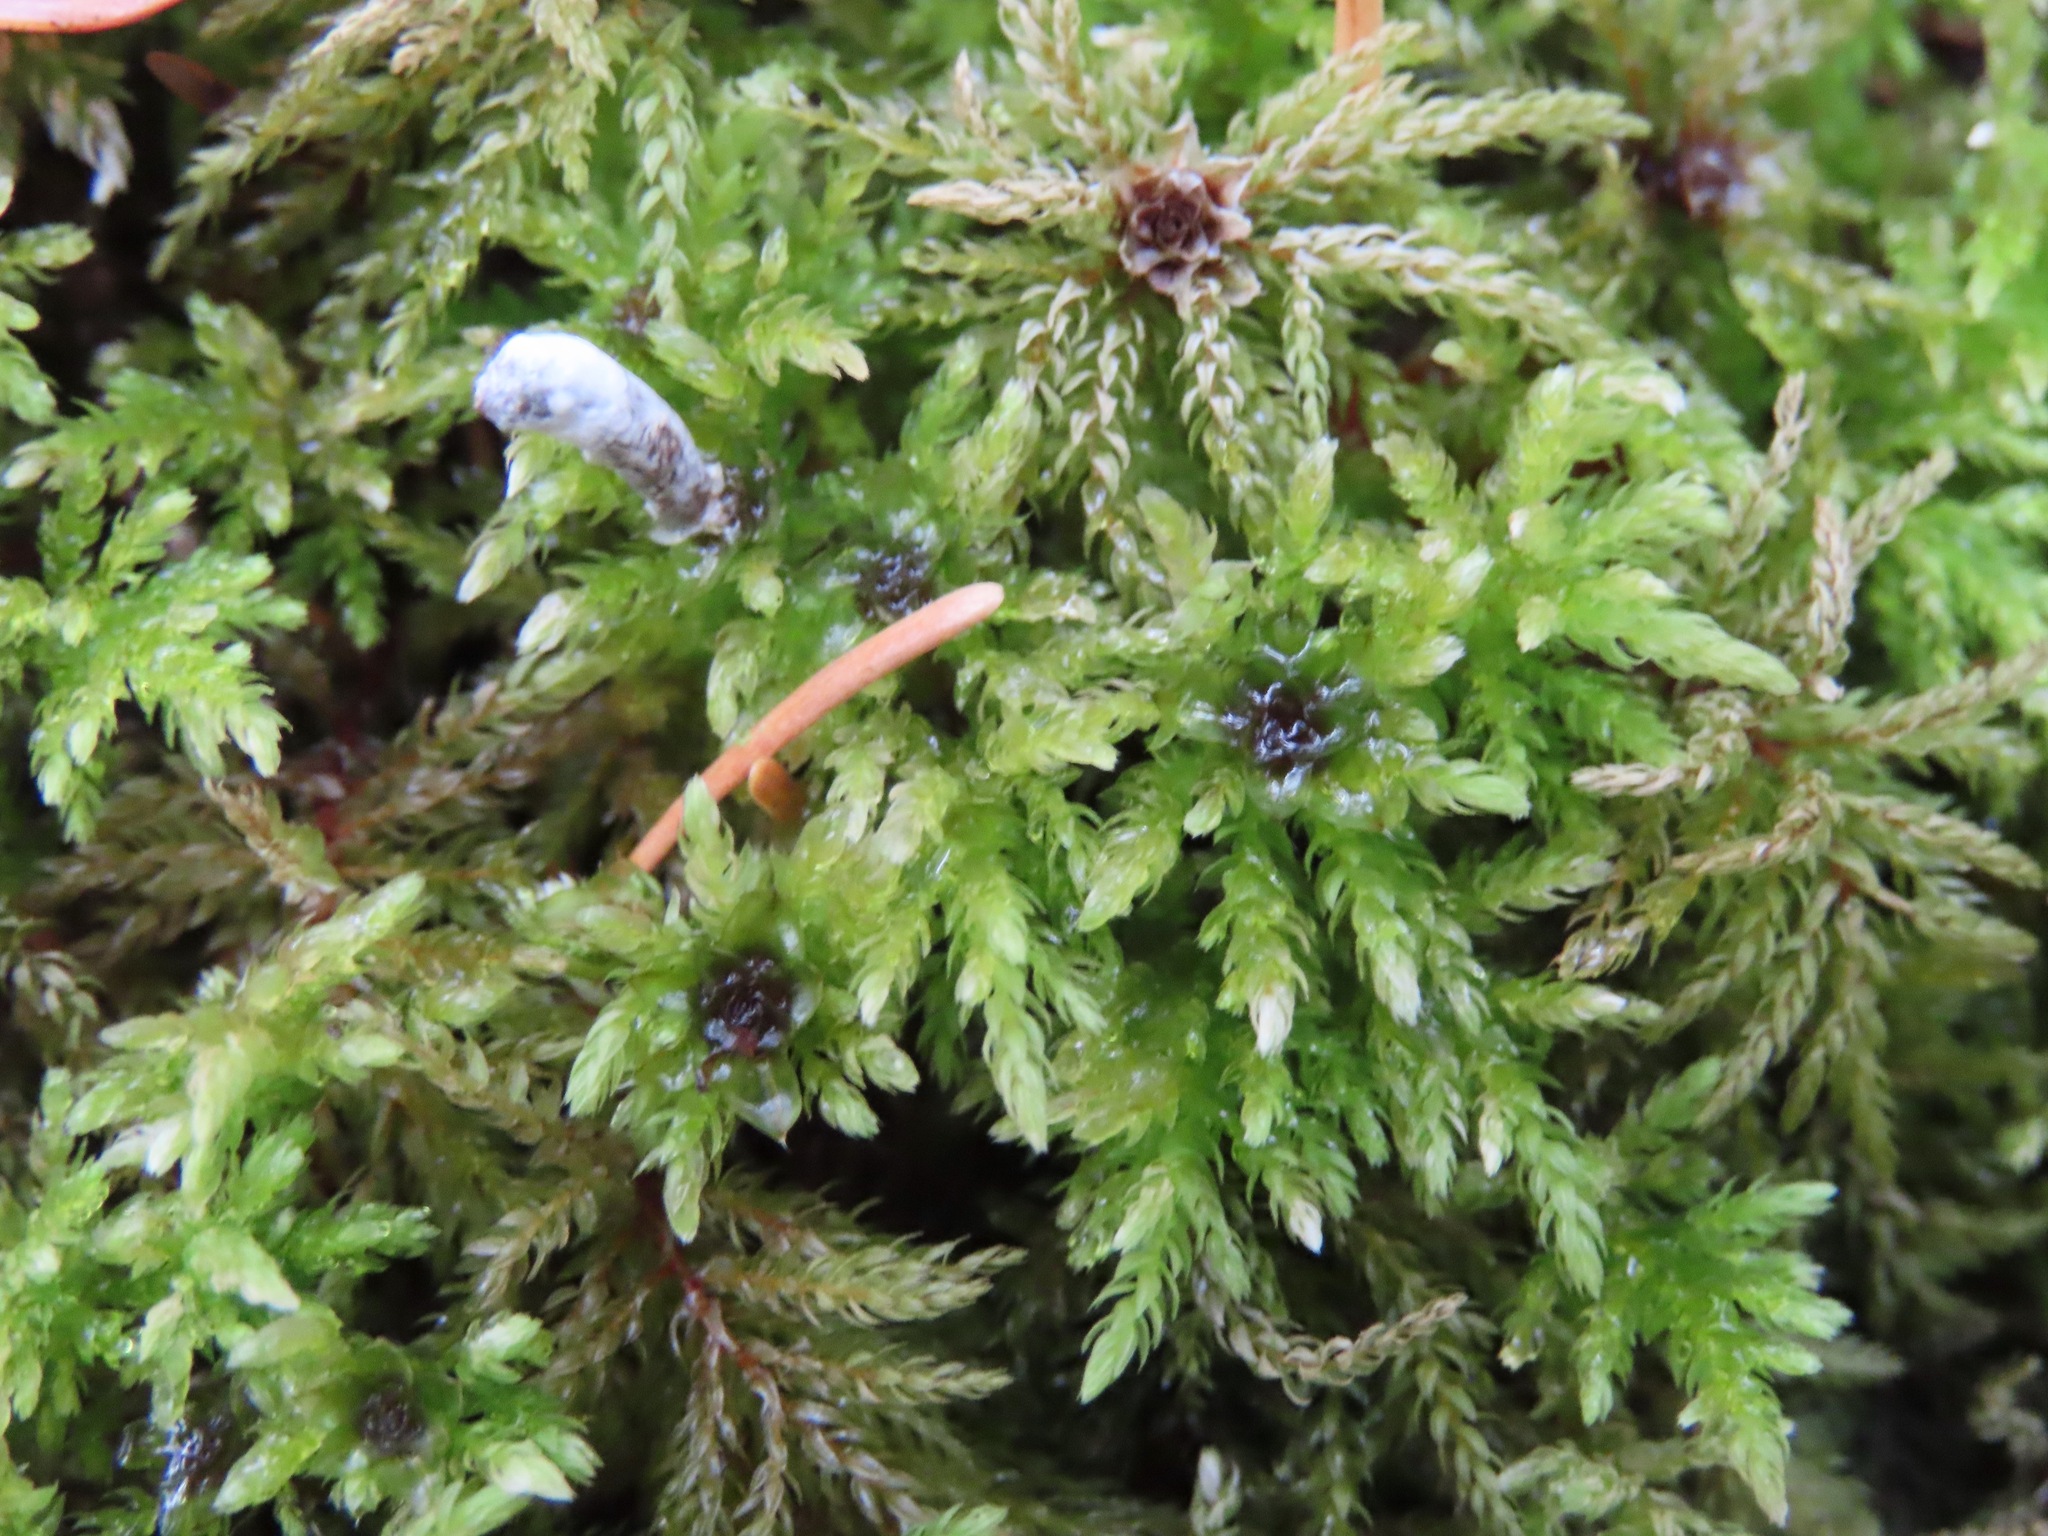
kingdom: Plantae
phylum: Bryophyta
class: Bryopsida
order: Bryales
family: Mniaceae
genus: Leucolepis
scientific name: Leucolepis acanthoneura
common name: Leucolepis umbrella moss
